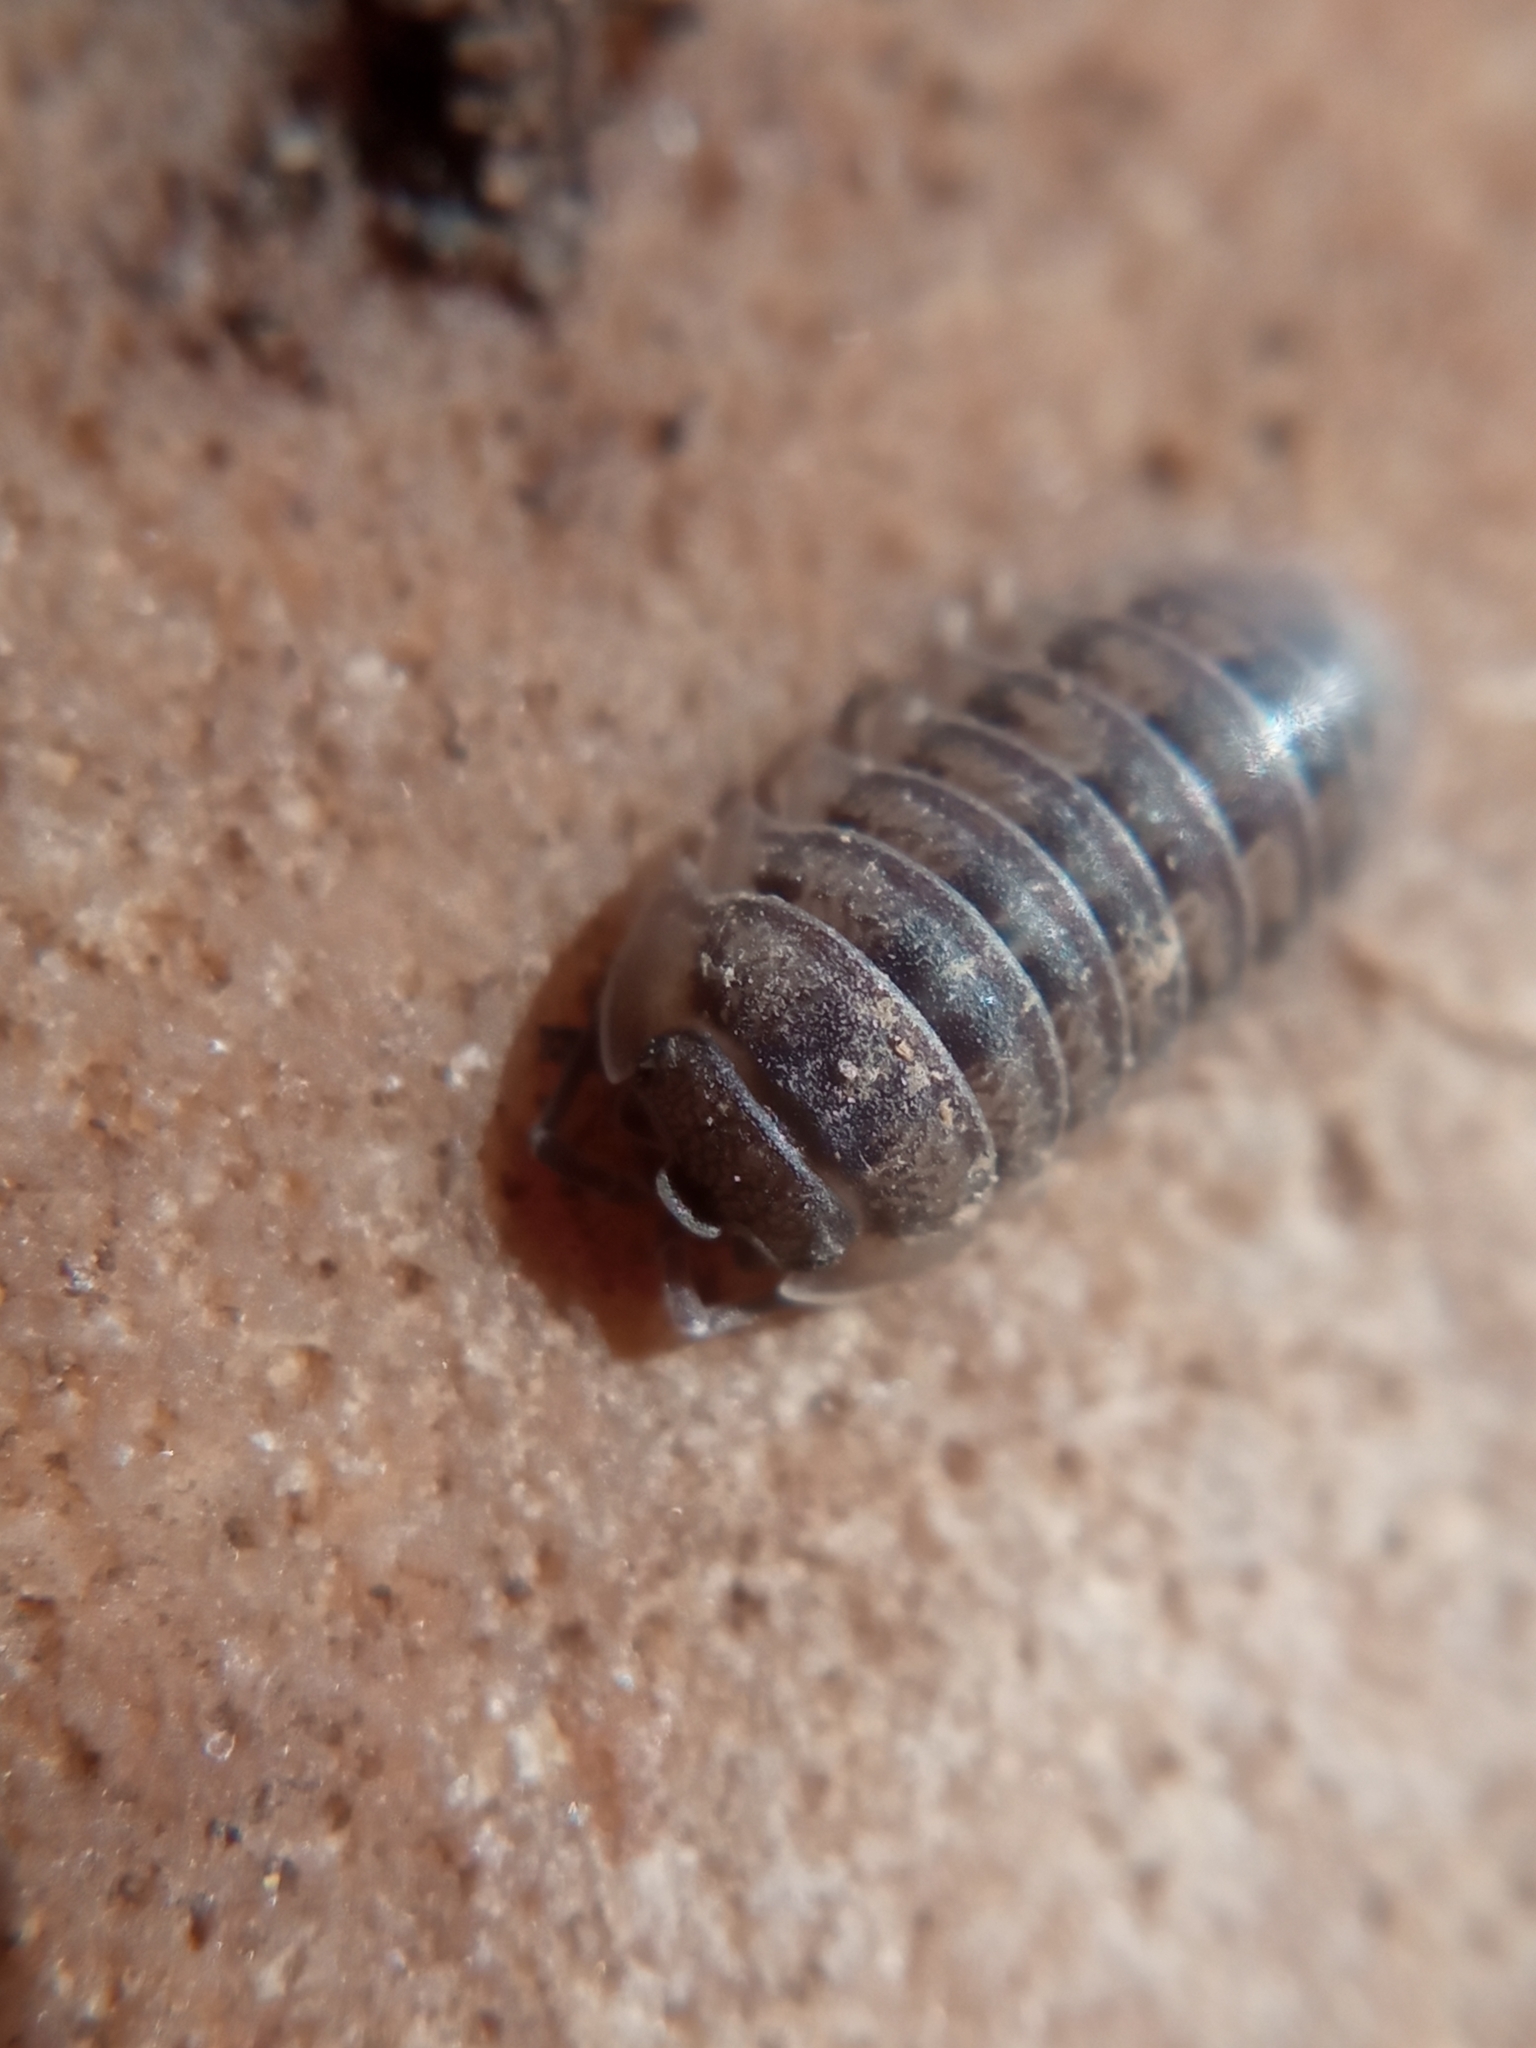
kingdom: Animalia
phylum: Arthropoda
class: Malacostraca
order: Isopoda
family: Armadillidiidae
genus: Armadillidium
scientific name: Armadillidium nasatum
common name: Isopod
